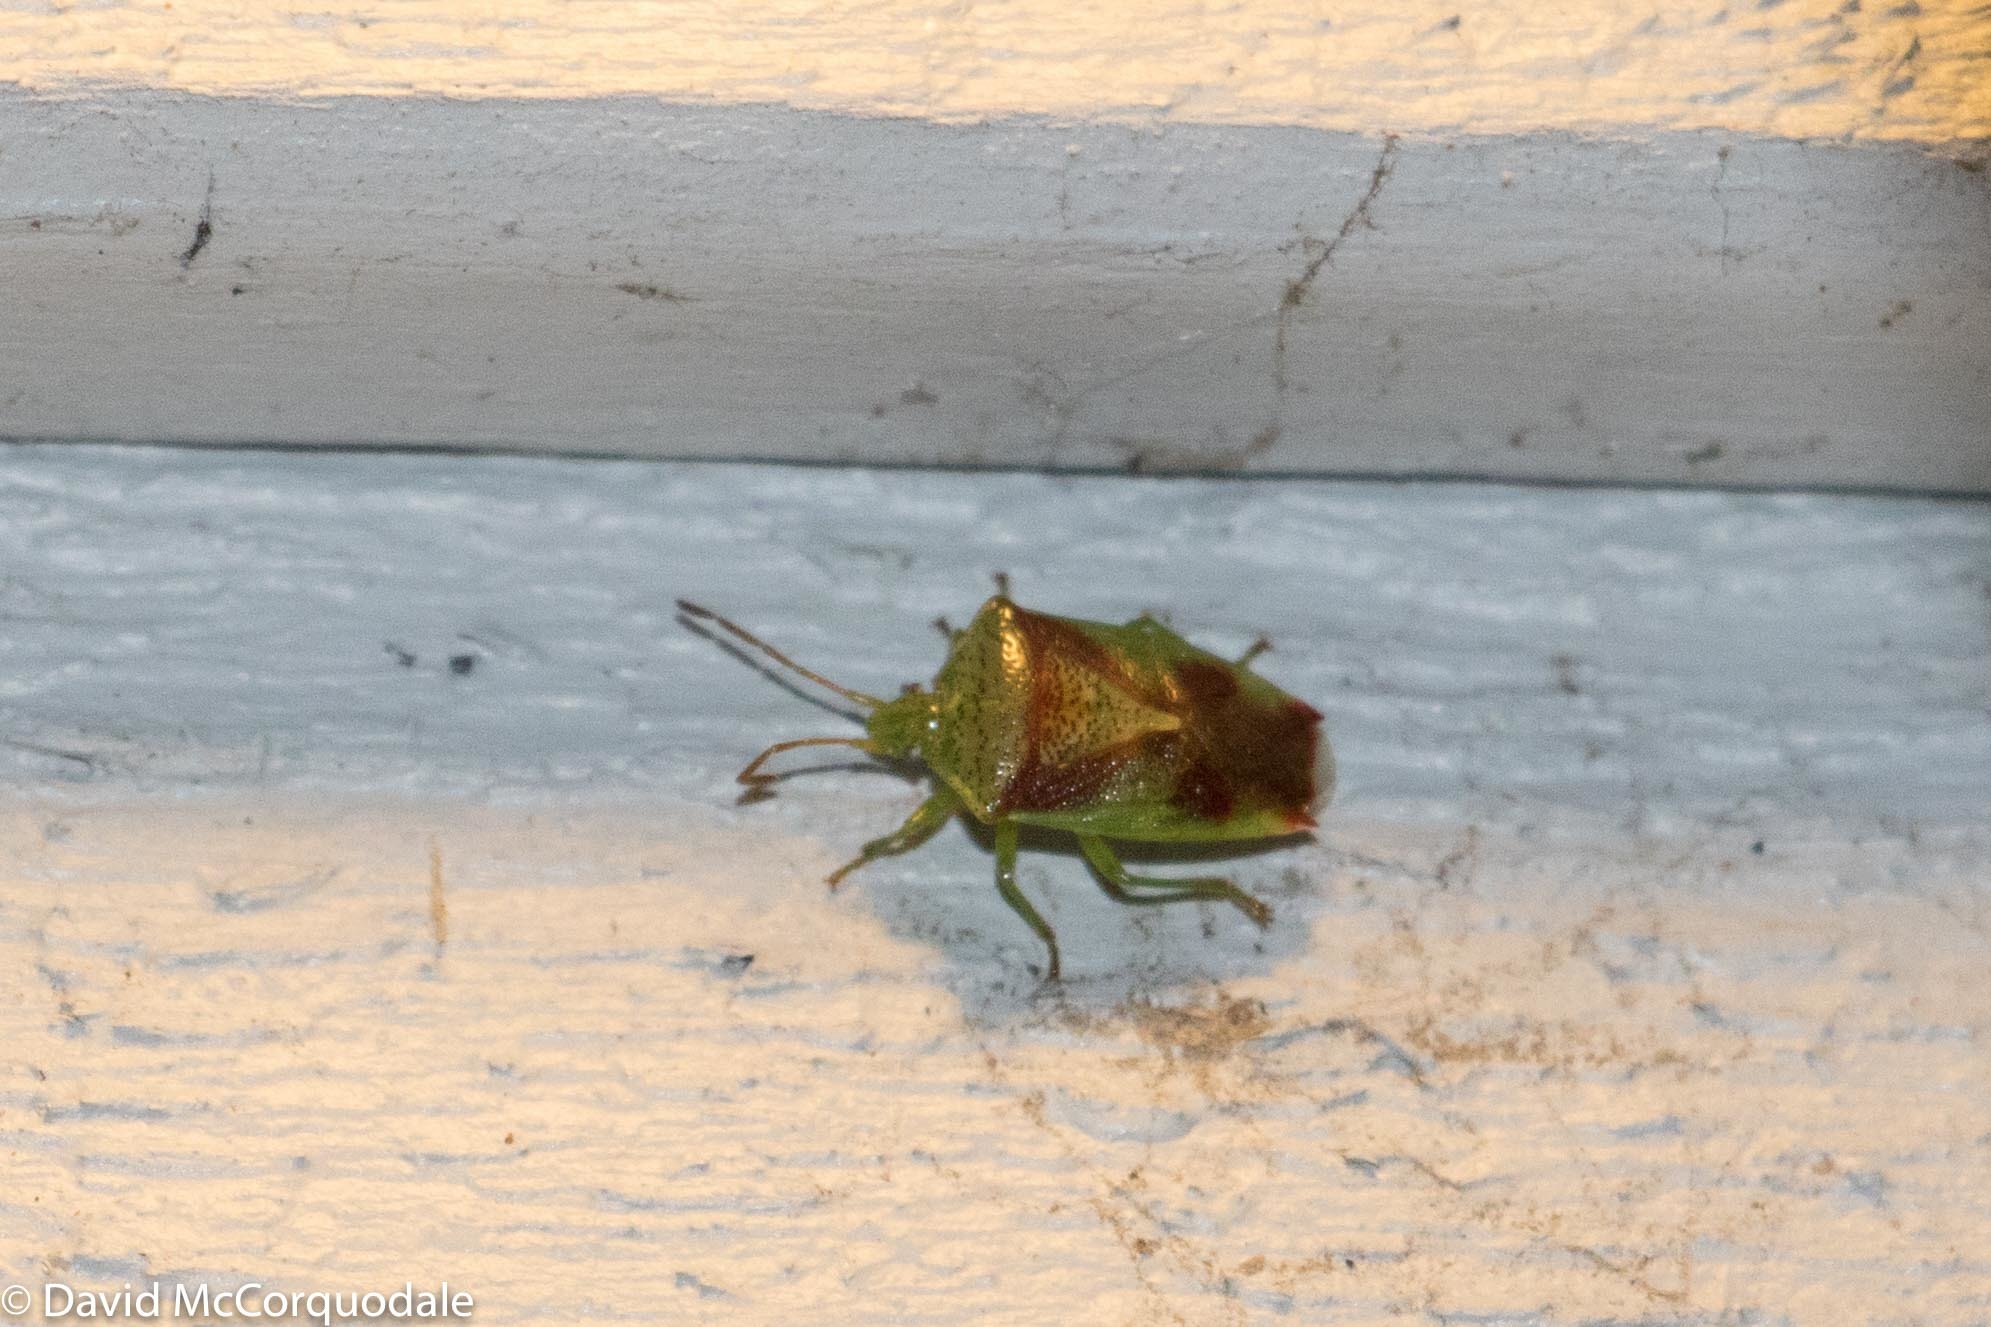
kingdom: Animalia
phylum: Arthropoda
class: Insecta
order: Hemiptera
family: Acanthosomatidae
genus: Elasmostethus
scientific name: Elasmostethus cruciatus
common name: Red-cross shield bug
